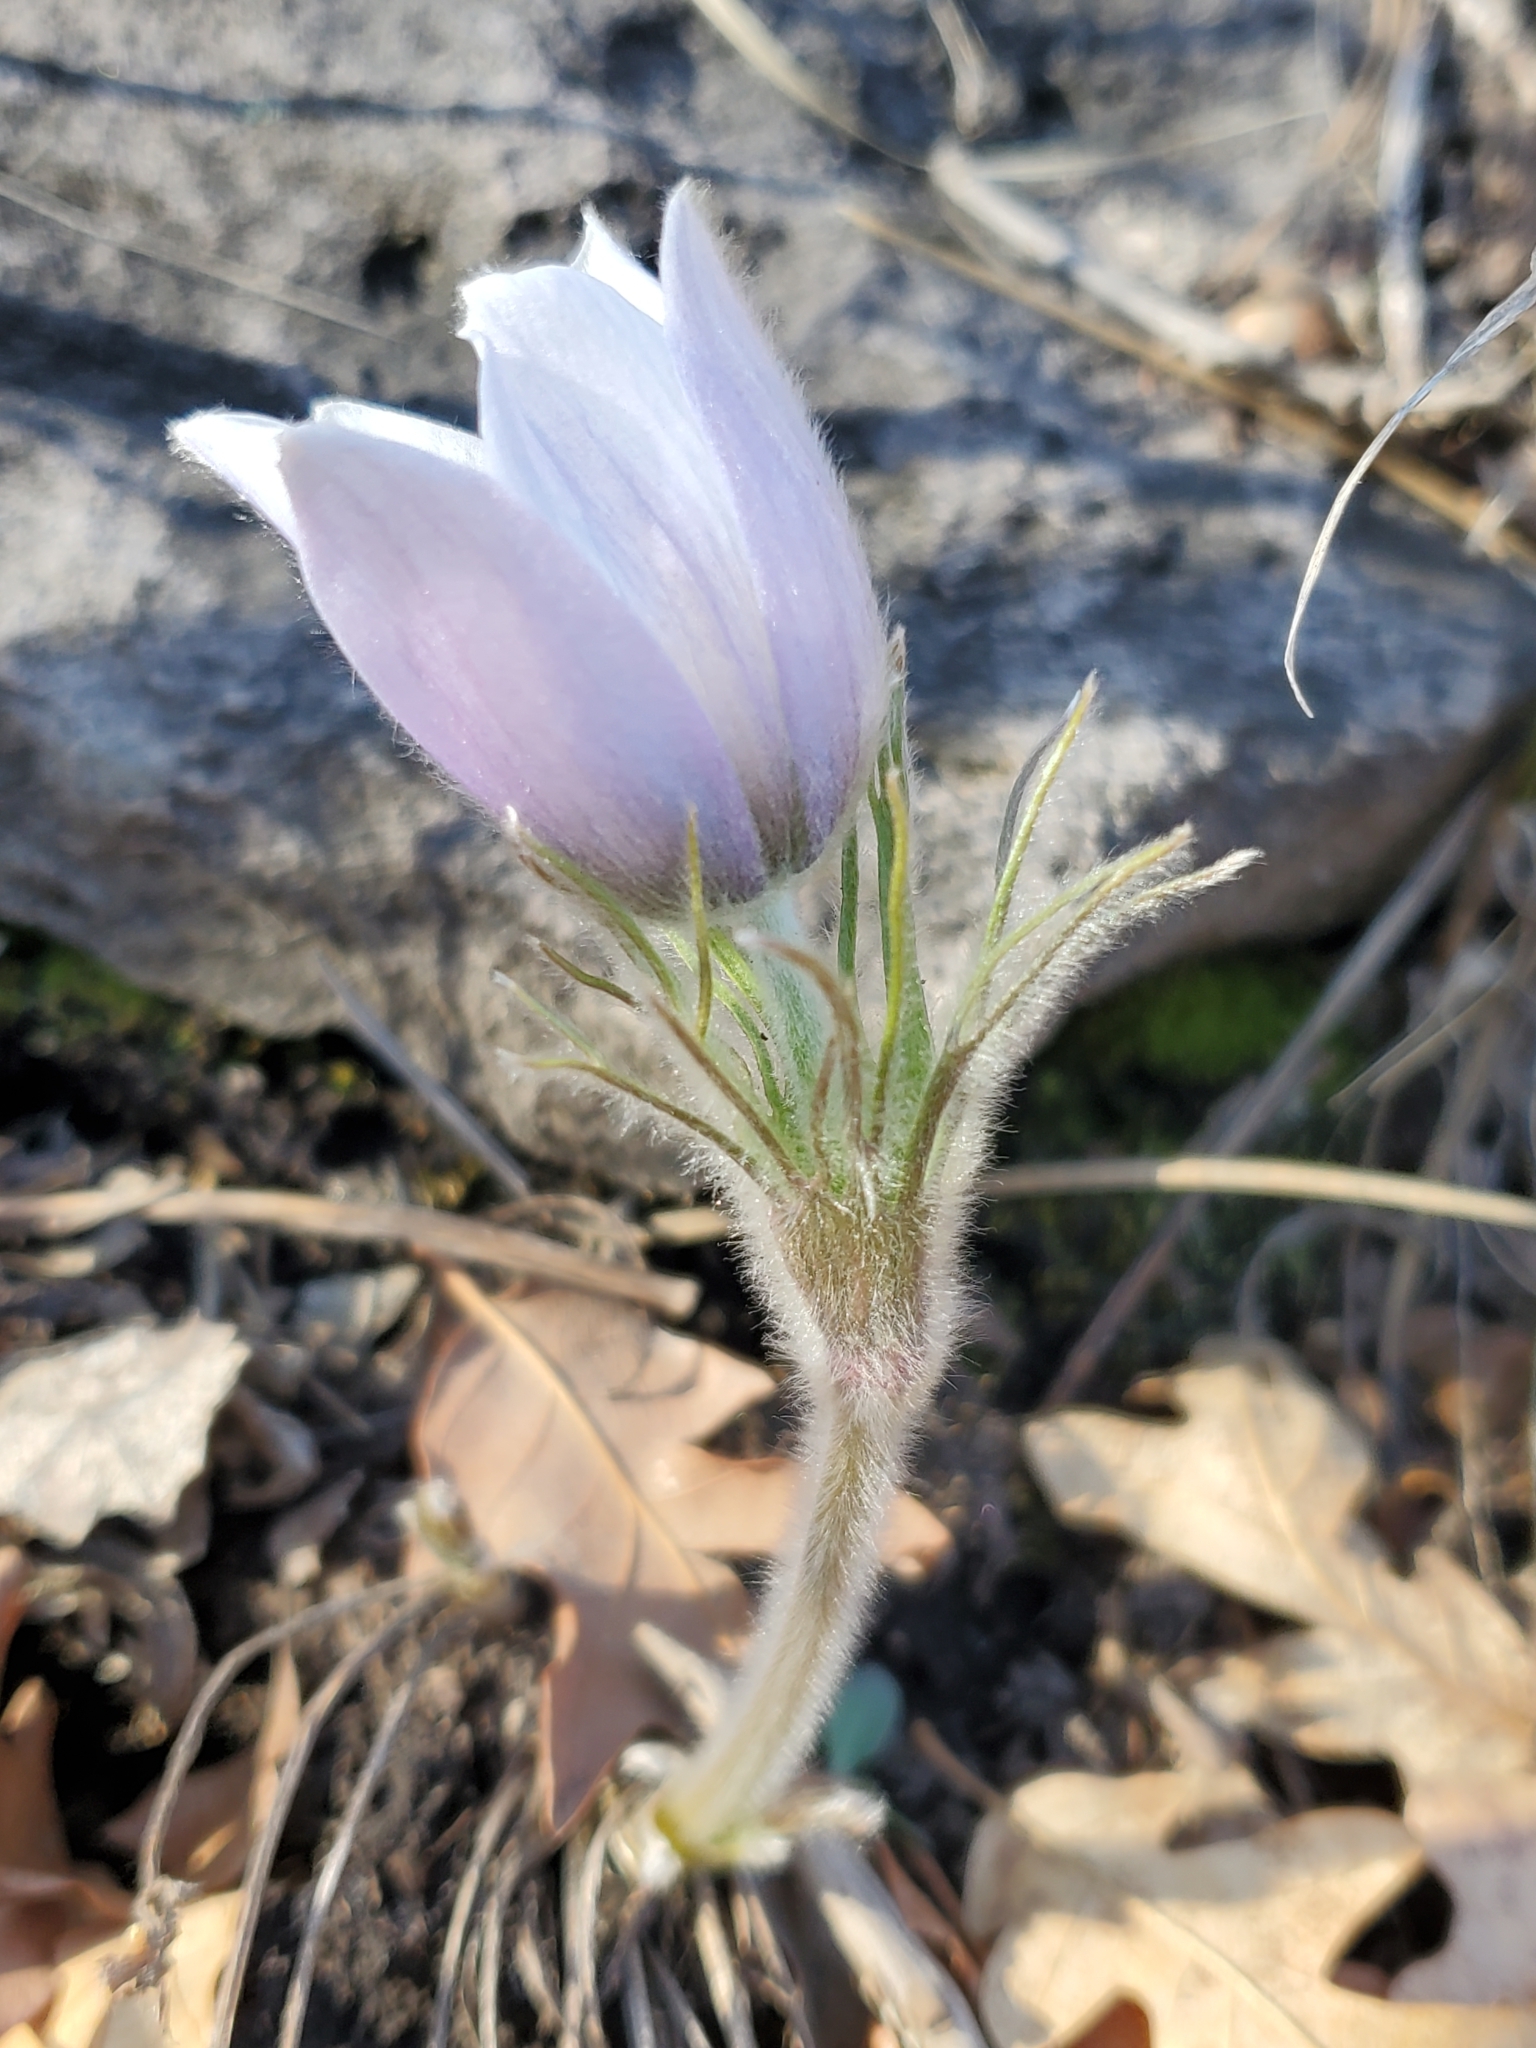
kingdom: Plantae
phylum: Tracheophyta
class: Magnoliopsida
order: Ranunculales
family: Ranunculaceae
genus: Pulsatilla
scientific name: Pulsatilla nuttalliana
